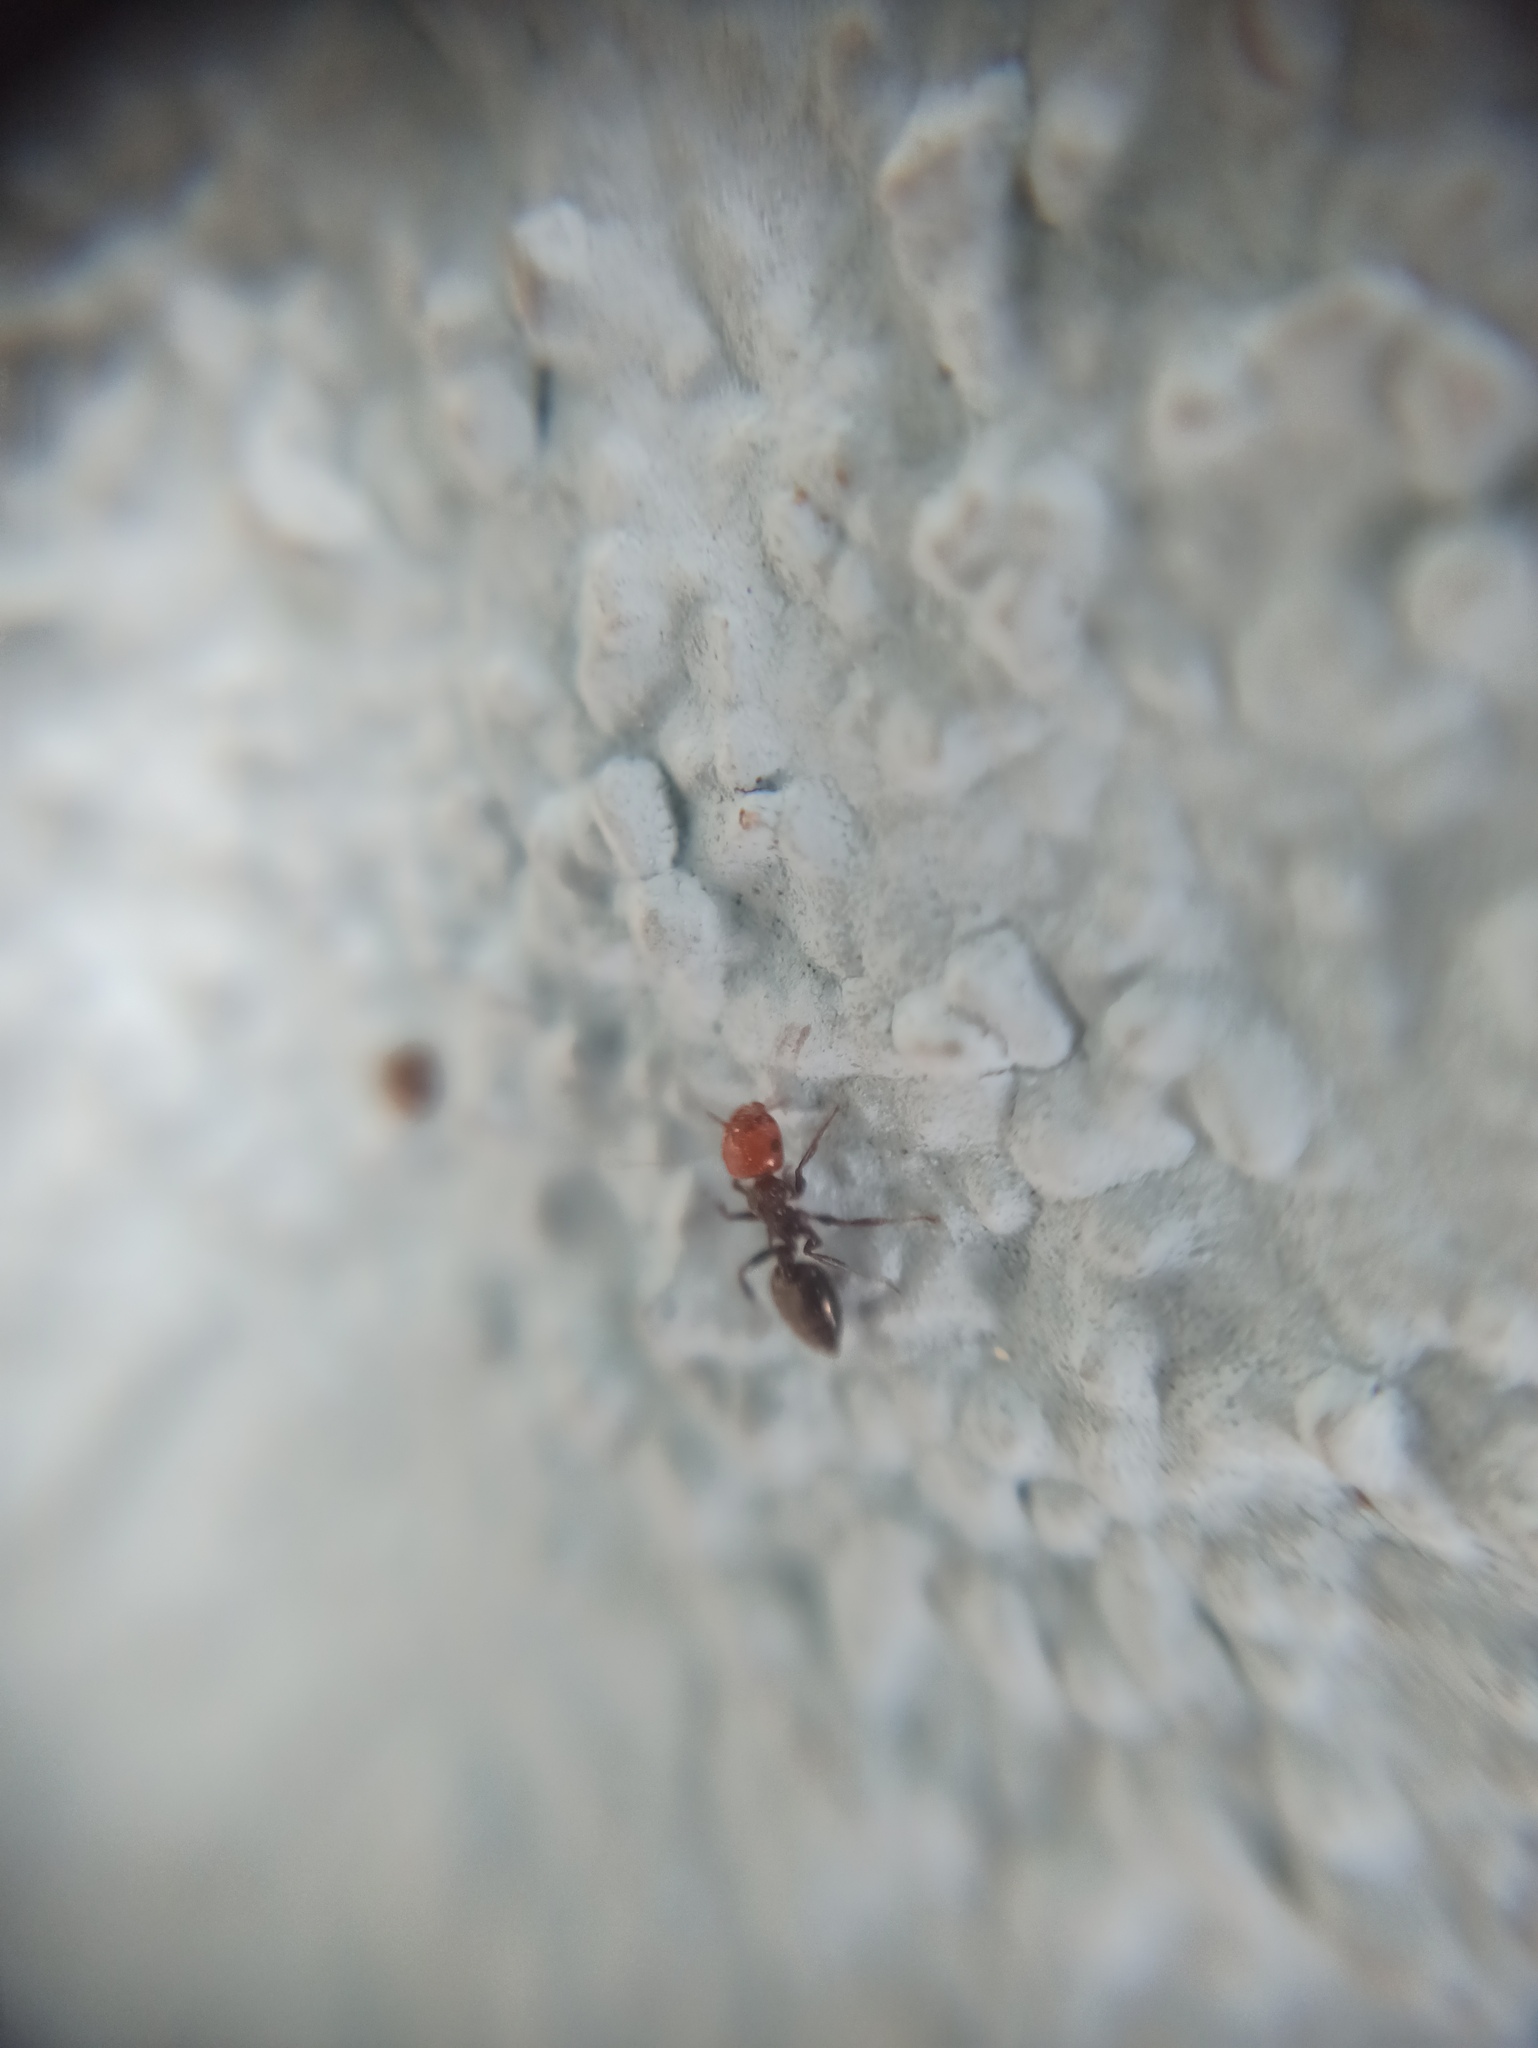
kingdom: Animalia
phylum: Arthropoda
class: Insecta
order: Hymenoptera
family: Formicidae
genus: Crematogaster
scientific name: Crematogaster scutellaris
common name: Fourmi du liège
